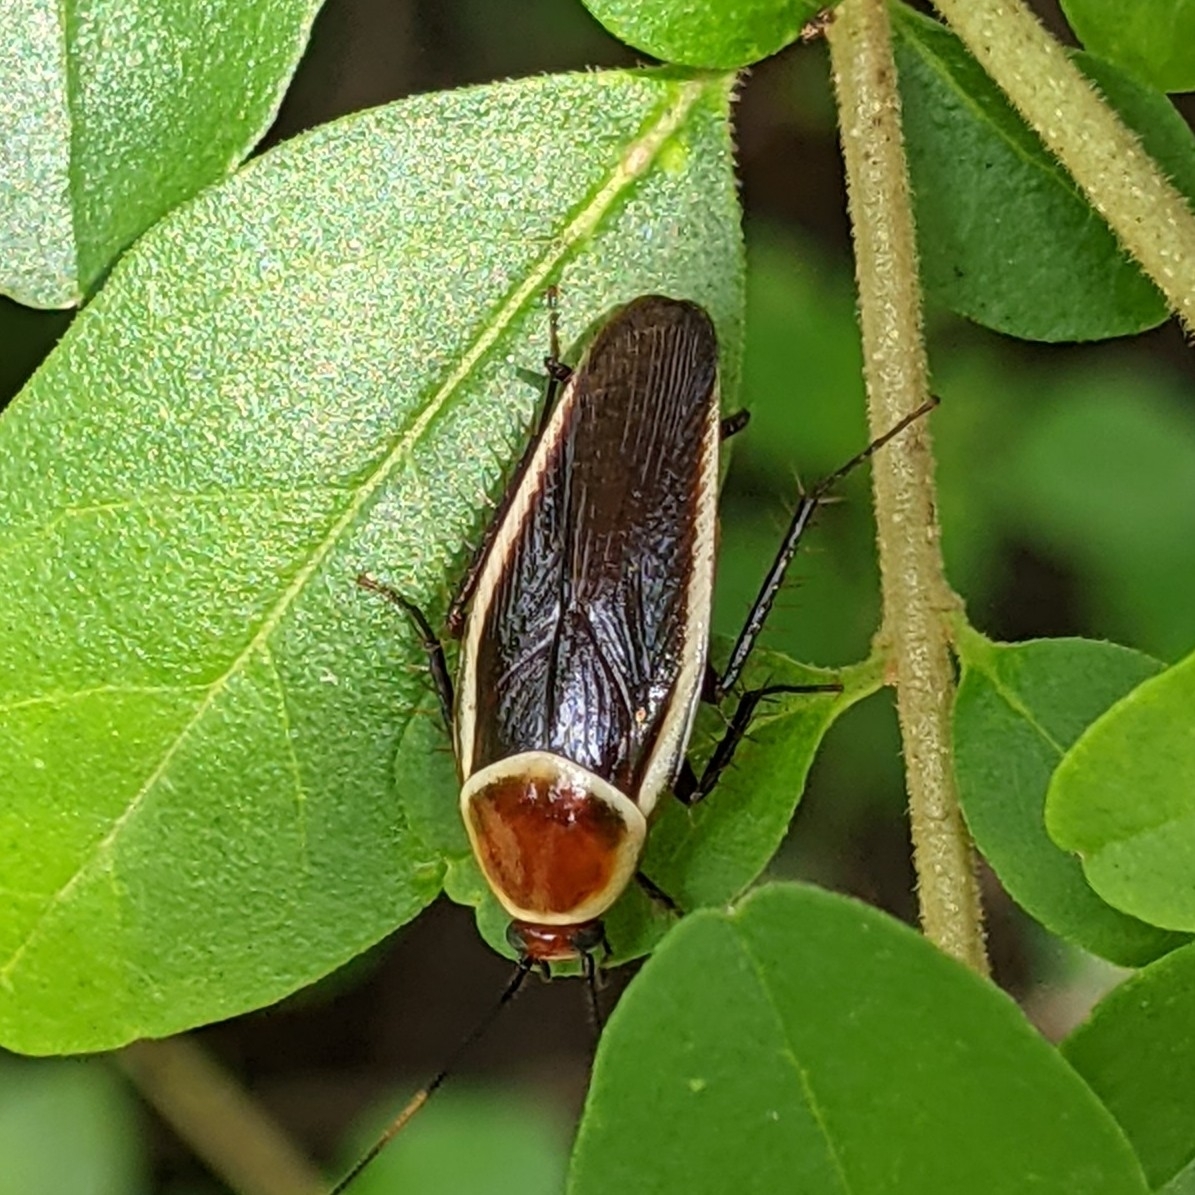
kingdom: Animalia
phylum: Arthropoda
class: Insecta
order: Blattodea
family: Ectobiidae
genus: Pseudomops
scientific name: Pseudomops septentrionalis
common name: Pale-bordered field cockroach
